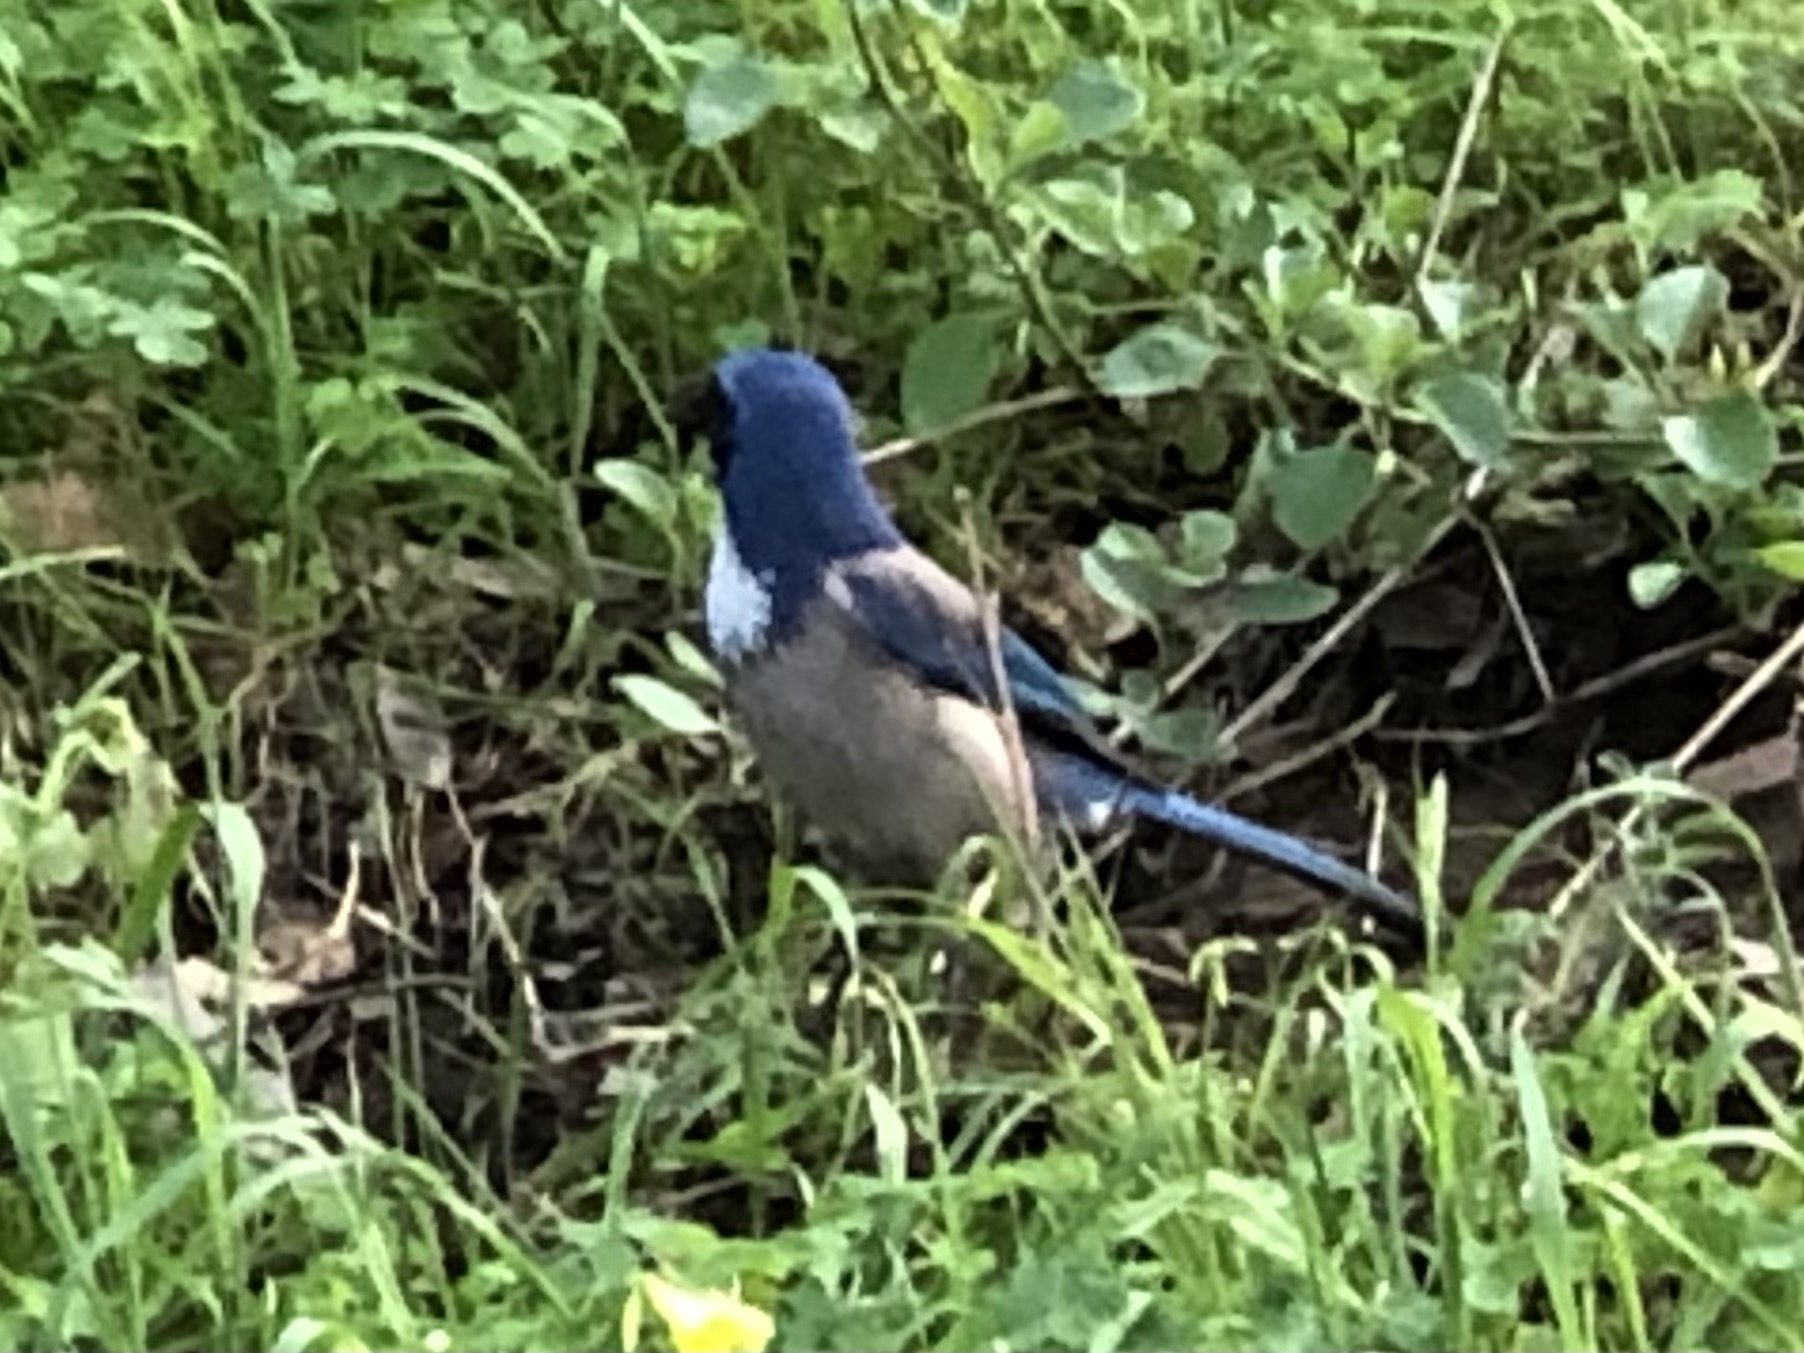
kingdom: Animalia
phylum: Chordata
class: Aves
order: Passeriformes
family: Corvidae
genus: Aphelocoma
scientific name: Aphelocoma californica
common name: California scrub-jay
